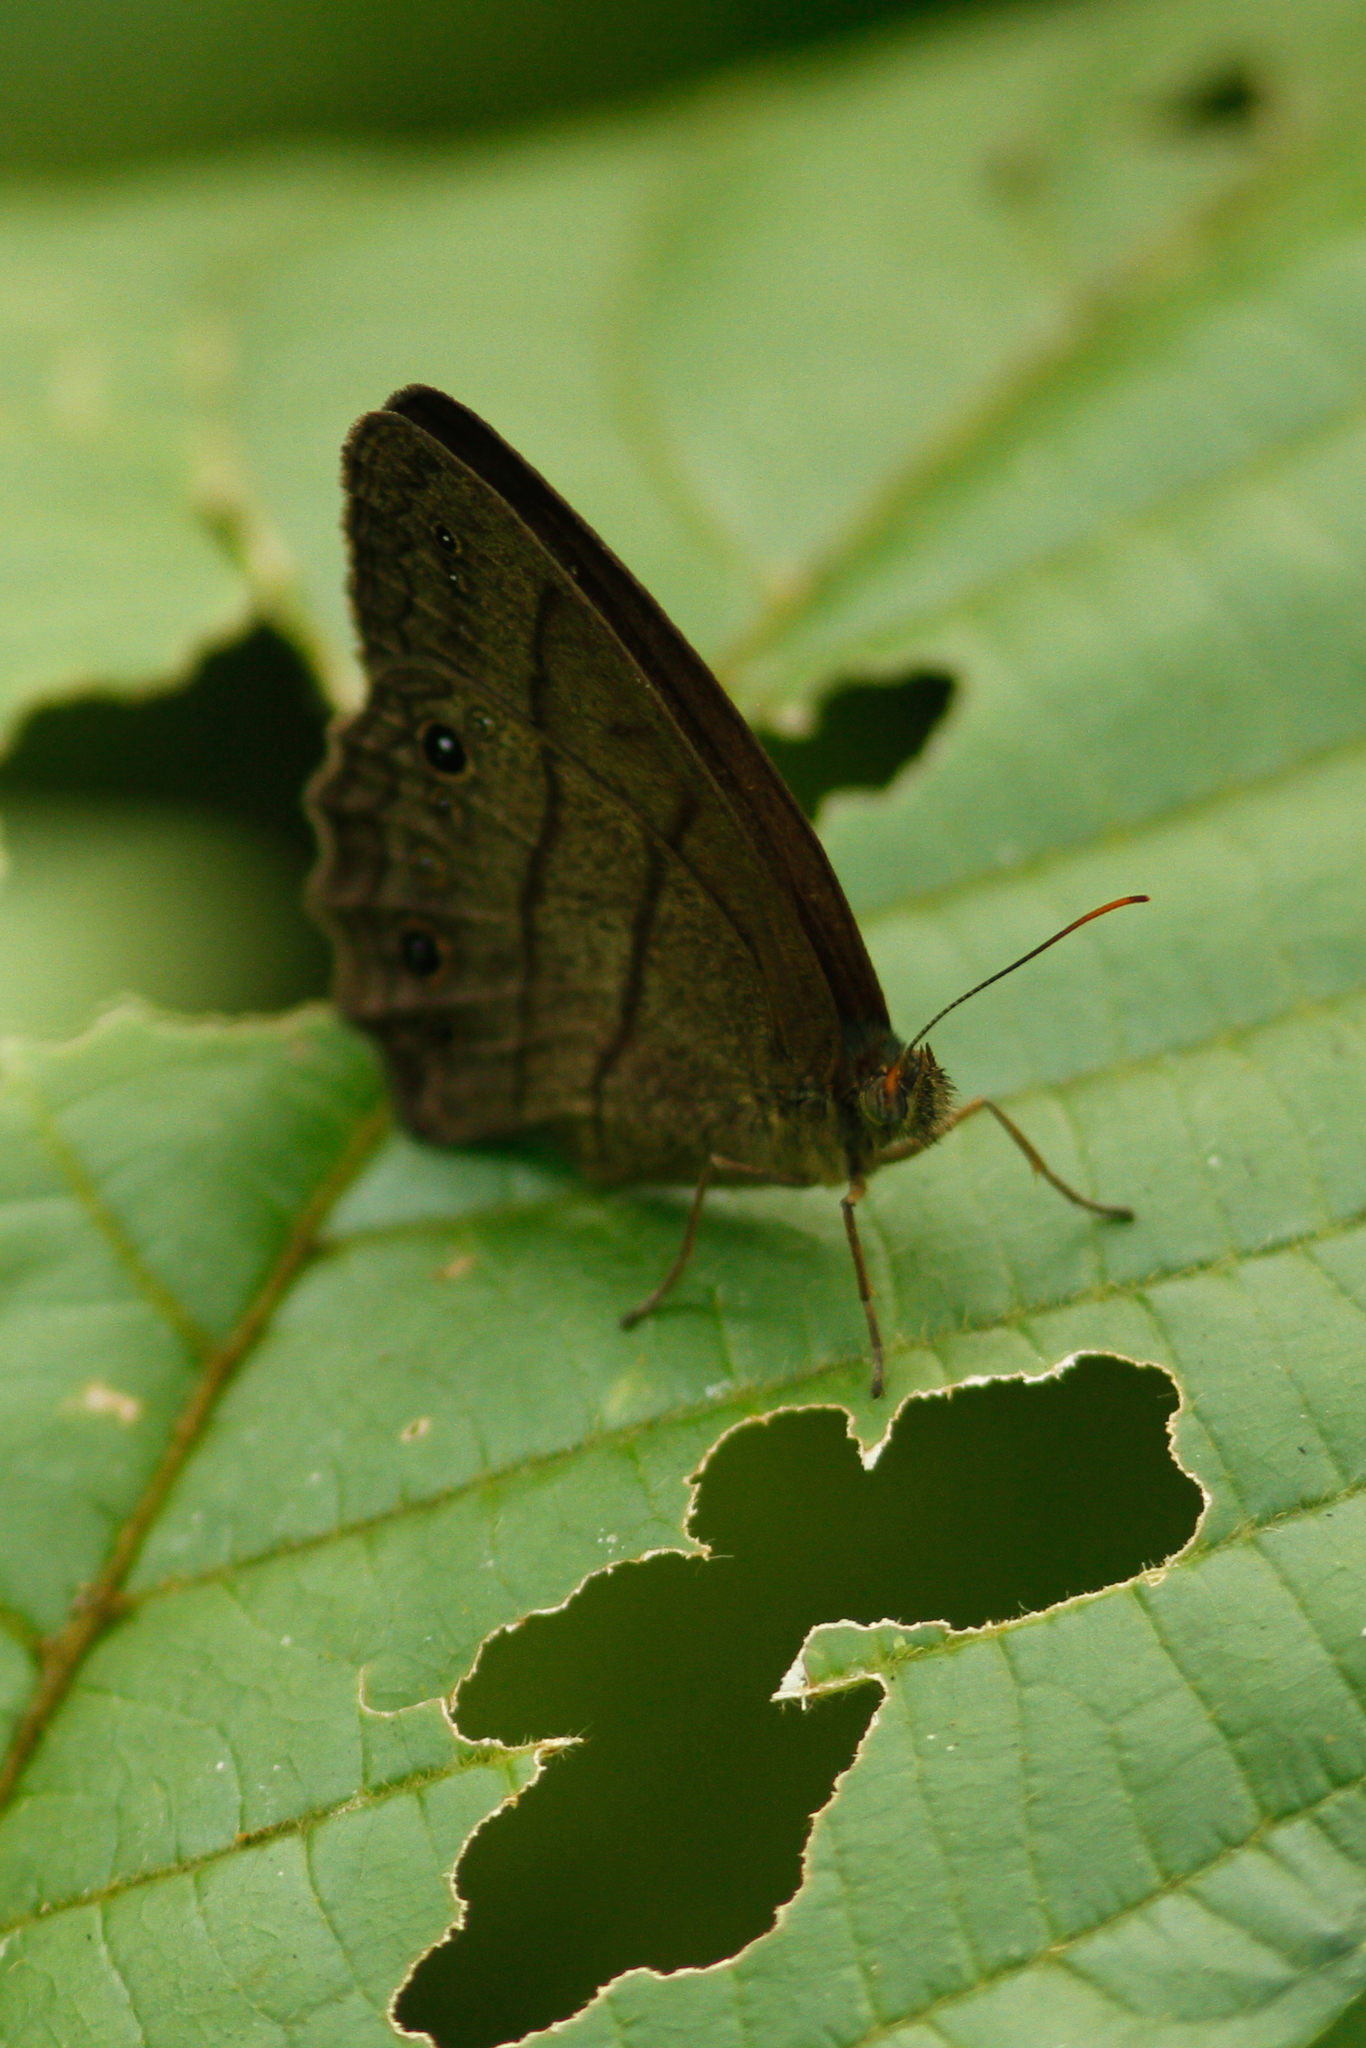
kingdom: Animalia
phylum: Arthropoda
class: Insecta
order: Lepidoptera
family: Nymphalidae
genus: Yphthimoides
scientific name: Yphthimoides renata
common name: Renata’s satyr
